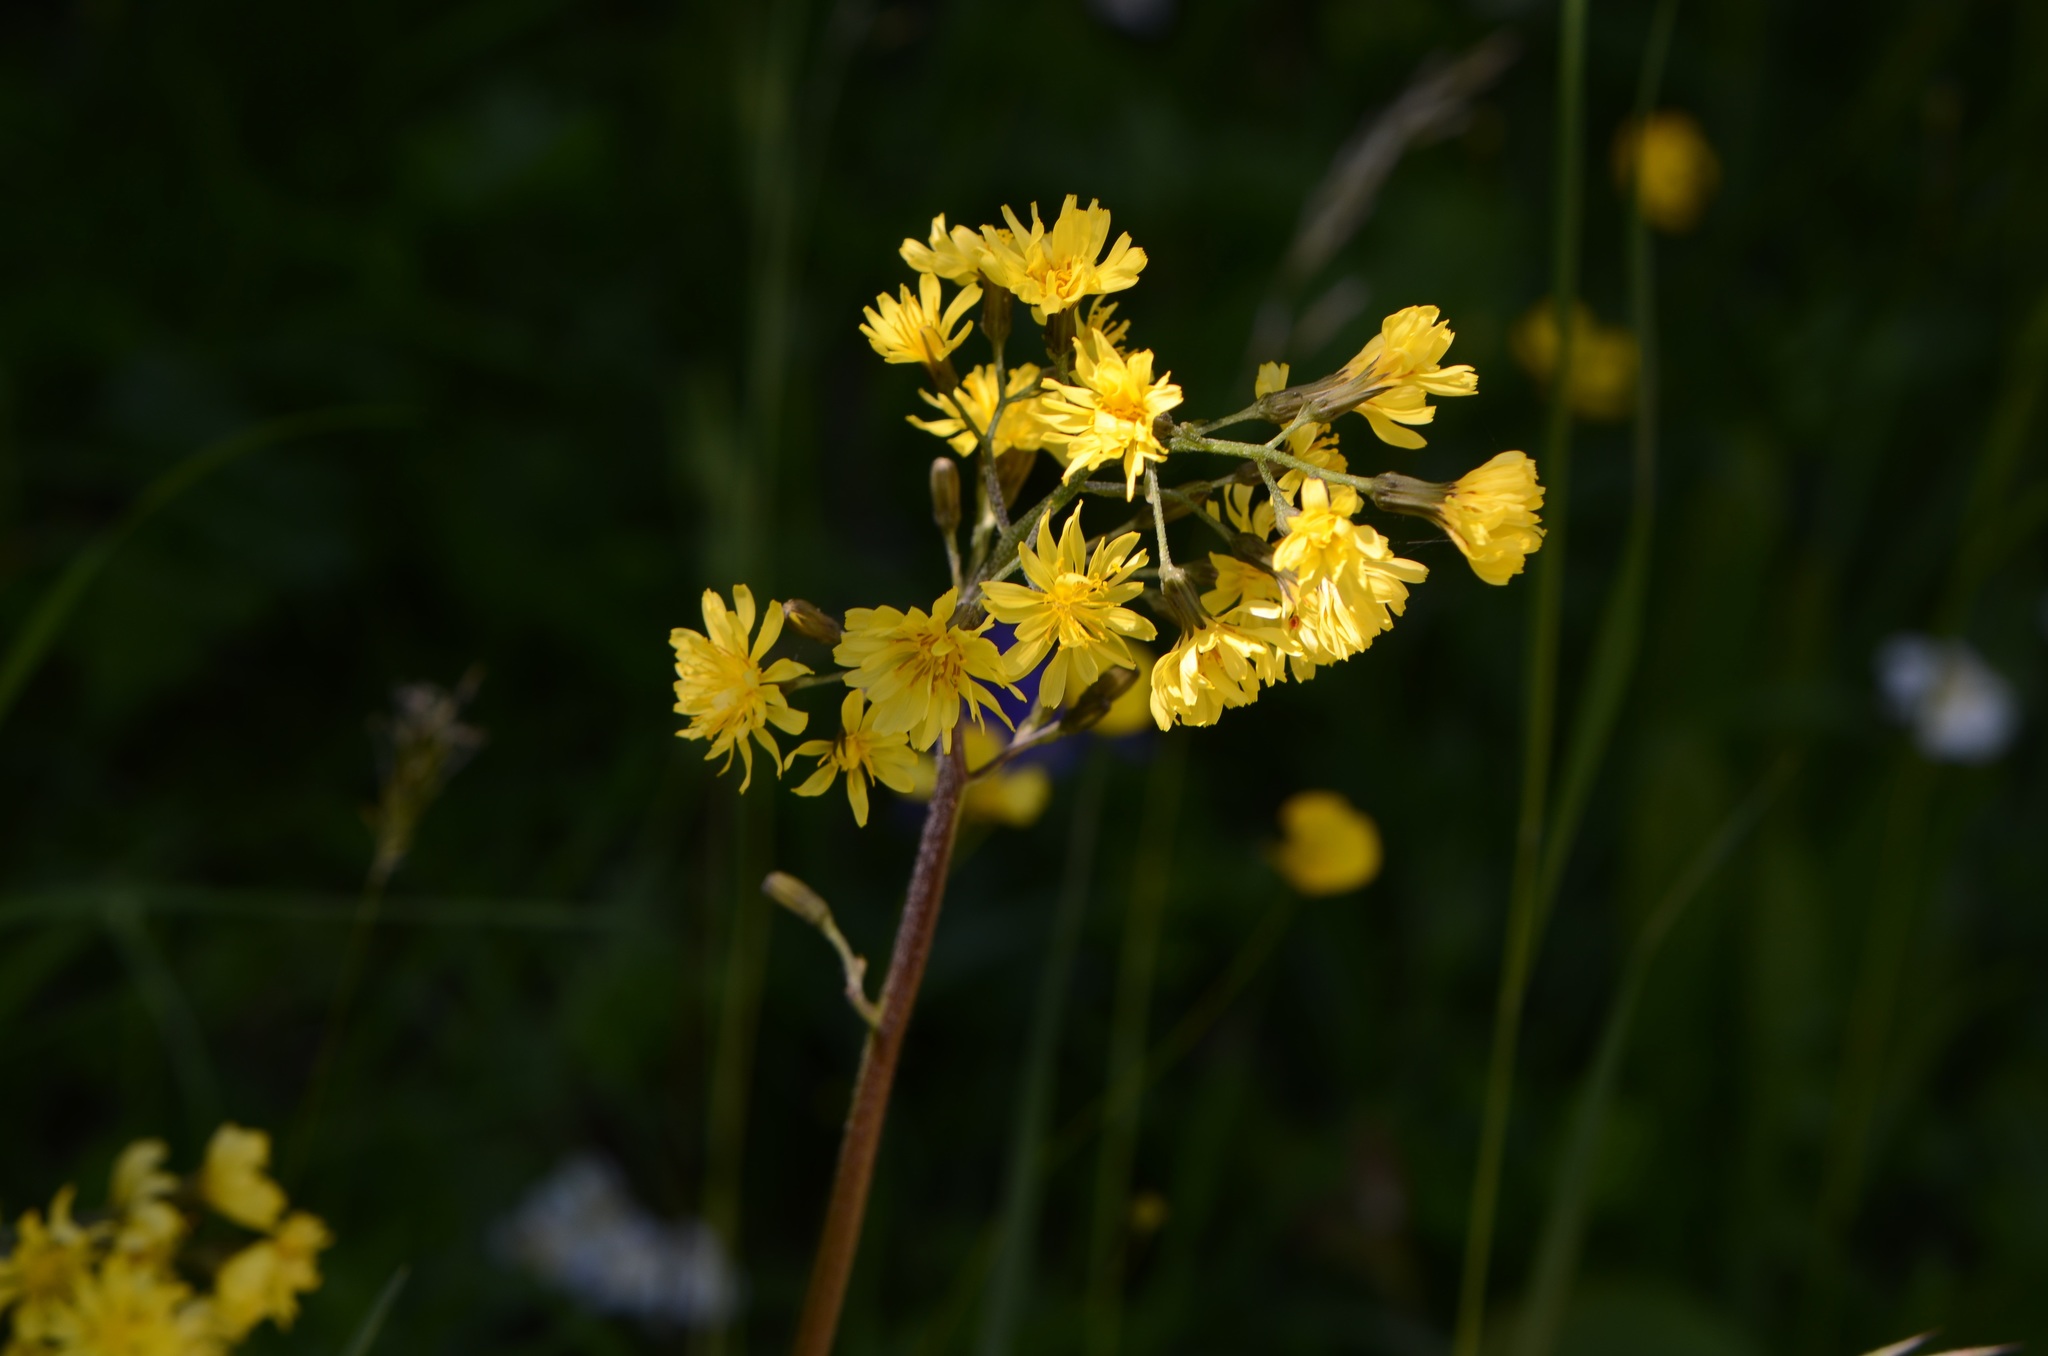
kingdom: Plantae
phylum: Tracheophyta
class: Magnoliopsida
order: Asterales
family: Asteraceae
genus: Crepis
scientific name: Crepis praemorsa
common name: Leafless hawk's-beard
